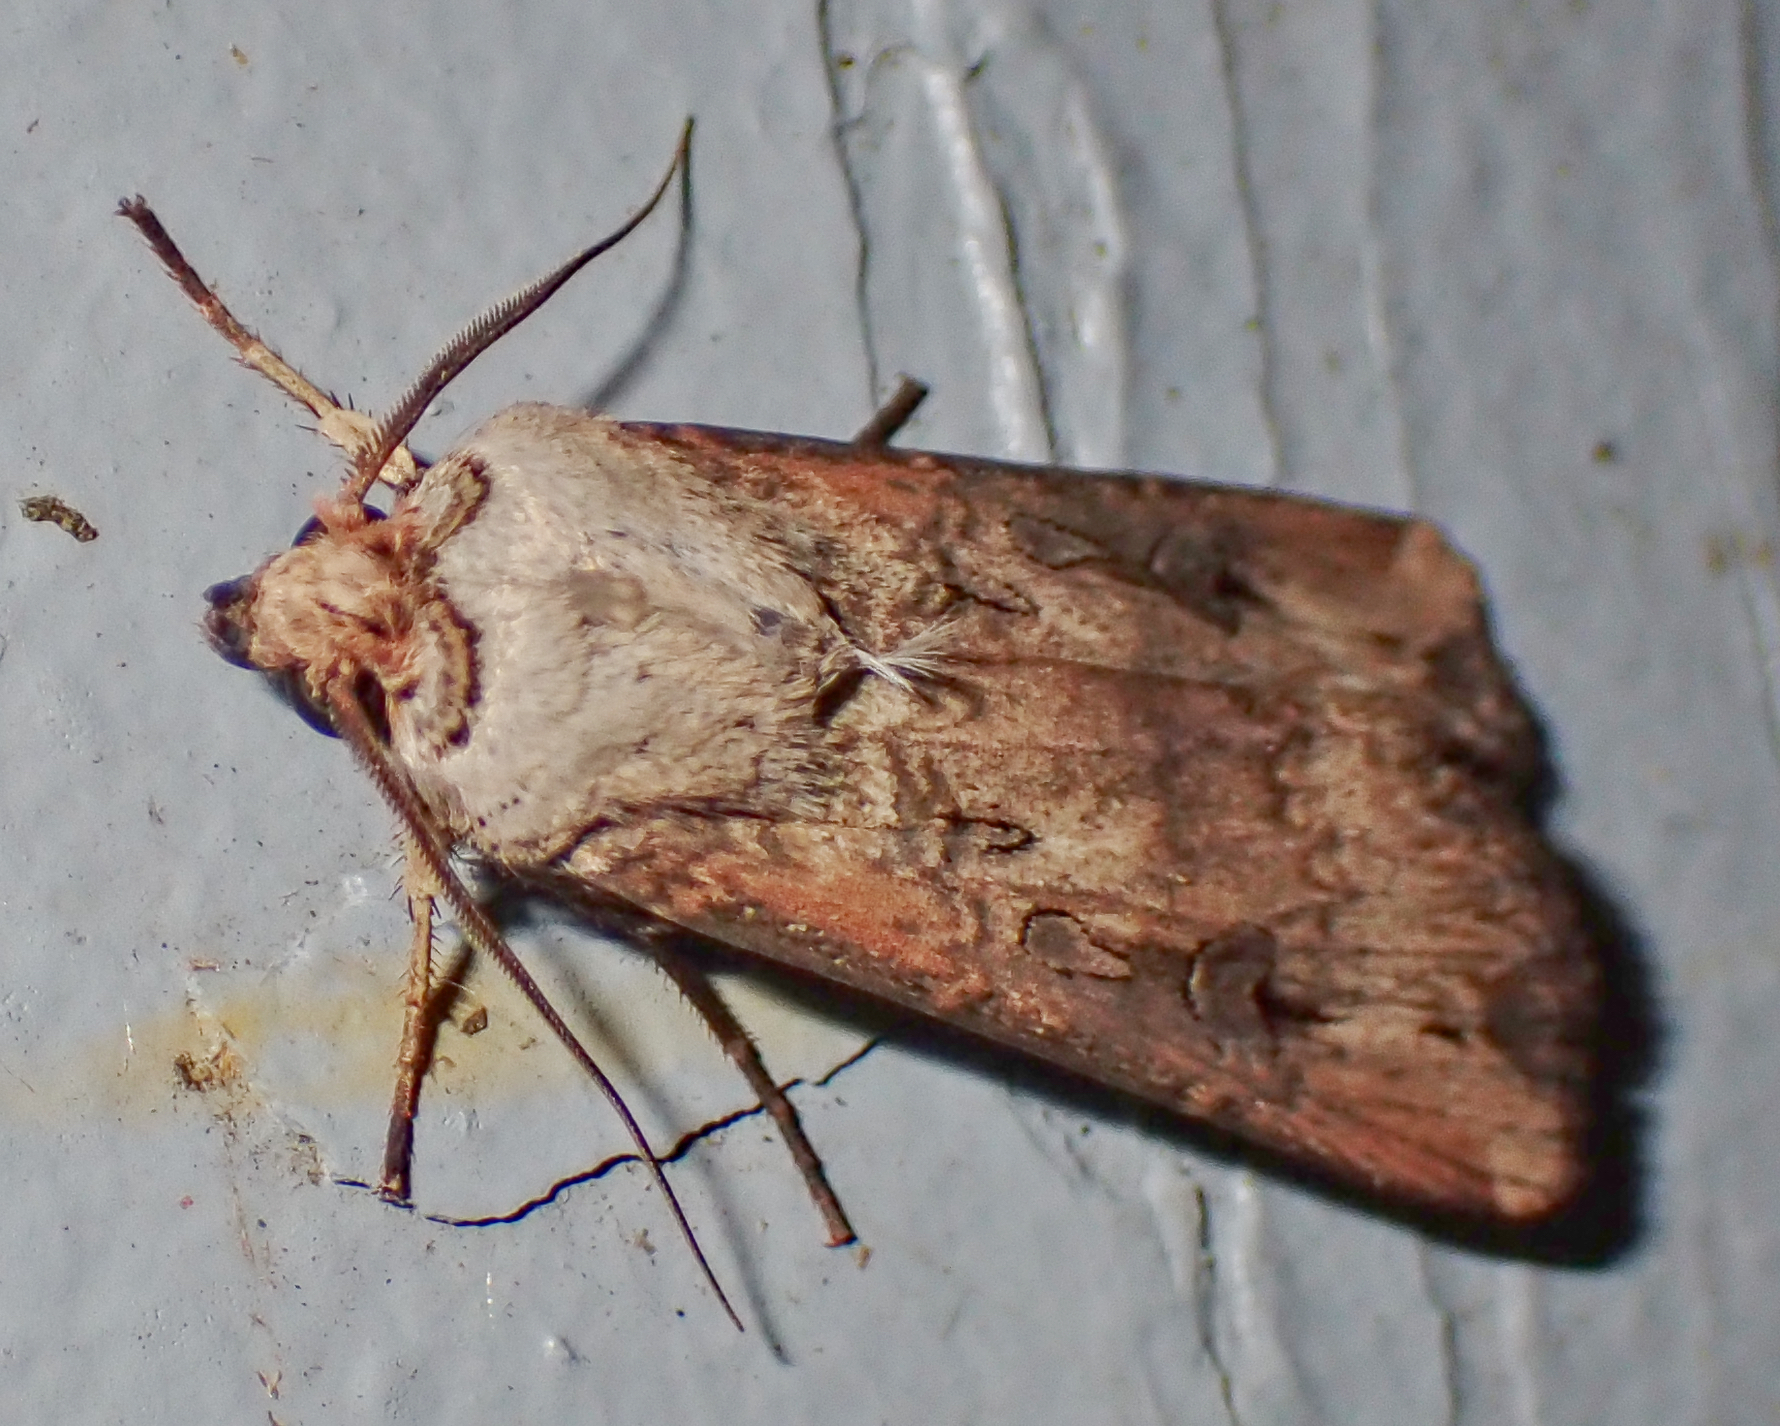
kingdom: Animalia
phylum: Arthropoda
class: Insecta
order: Lepidoptera
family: Noctuidae
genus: Agrotis
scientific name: Agrotis ipsilon
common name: Dark sword-grass
